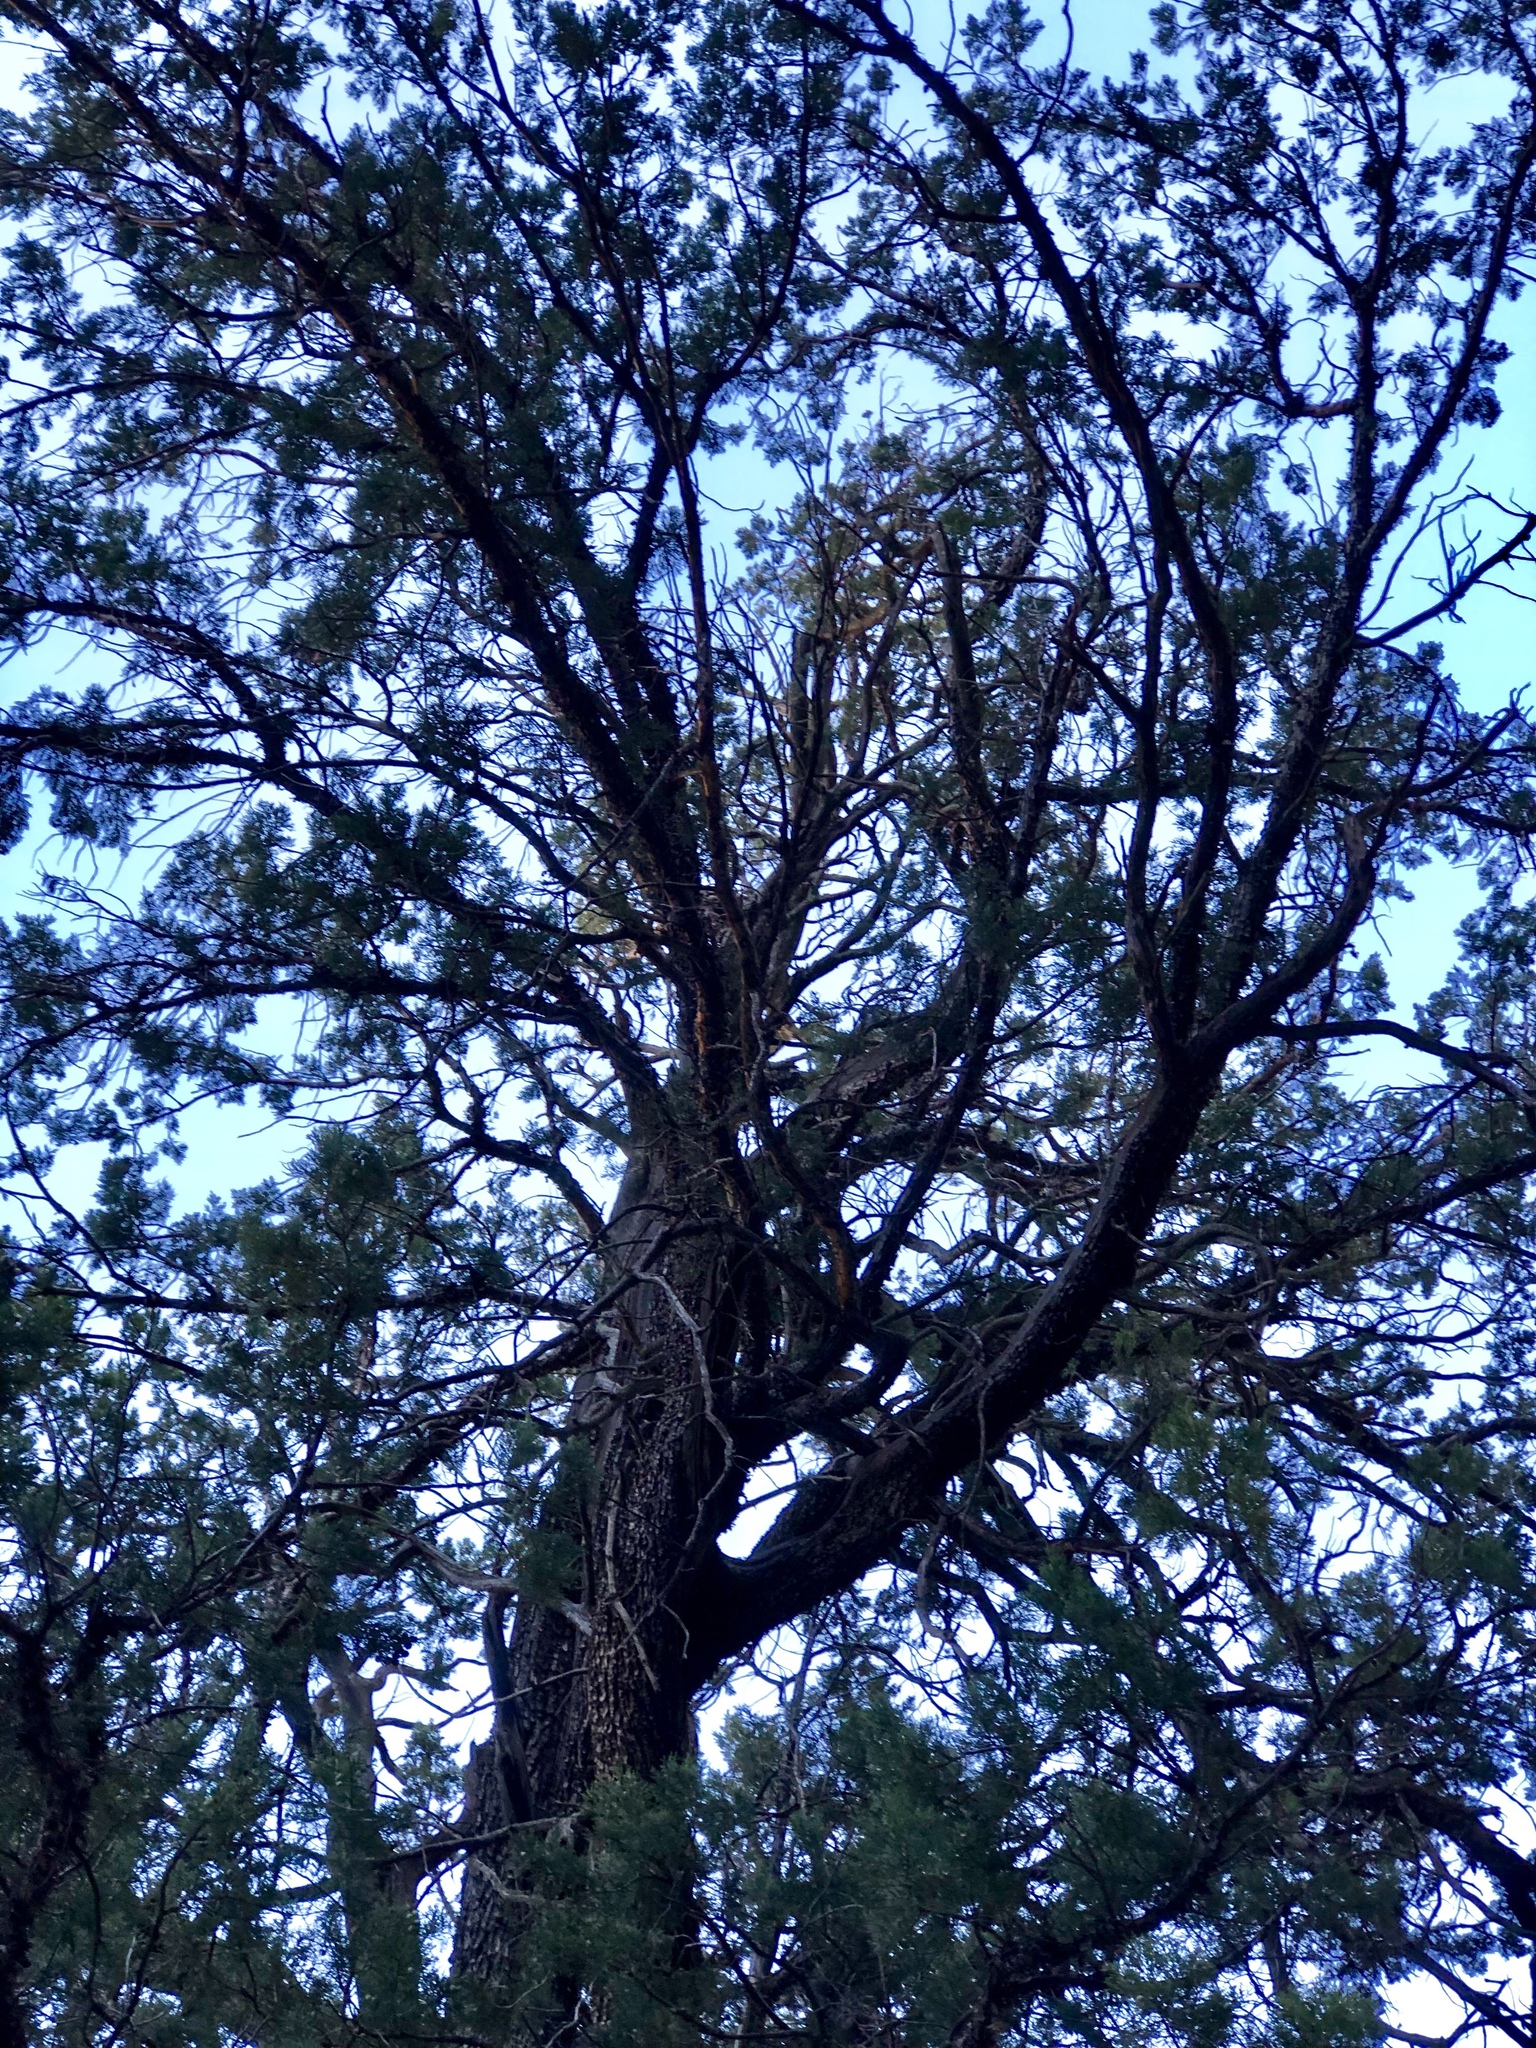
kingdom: Plantae
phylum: Tracheophyta
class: Pinopsida
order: Pinales
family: Cupressaceae
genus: Juniperus
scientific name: Juniperus deppeana
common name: Alligator juniper
